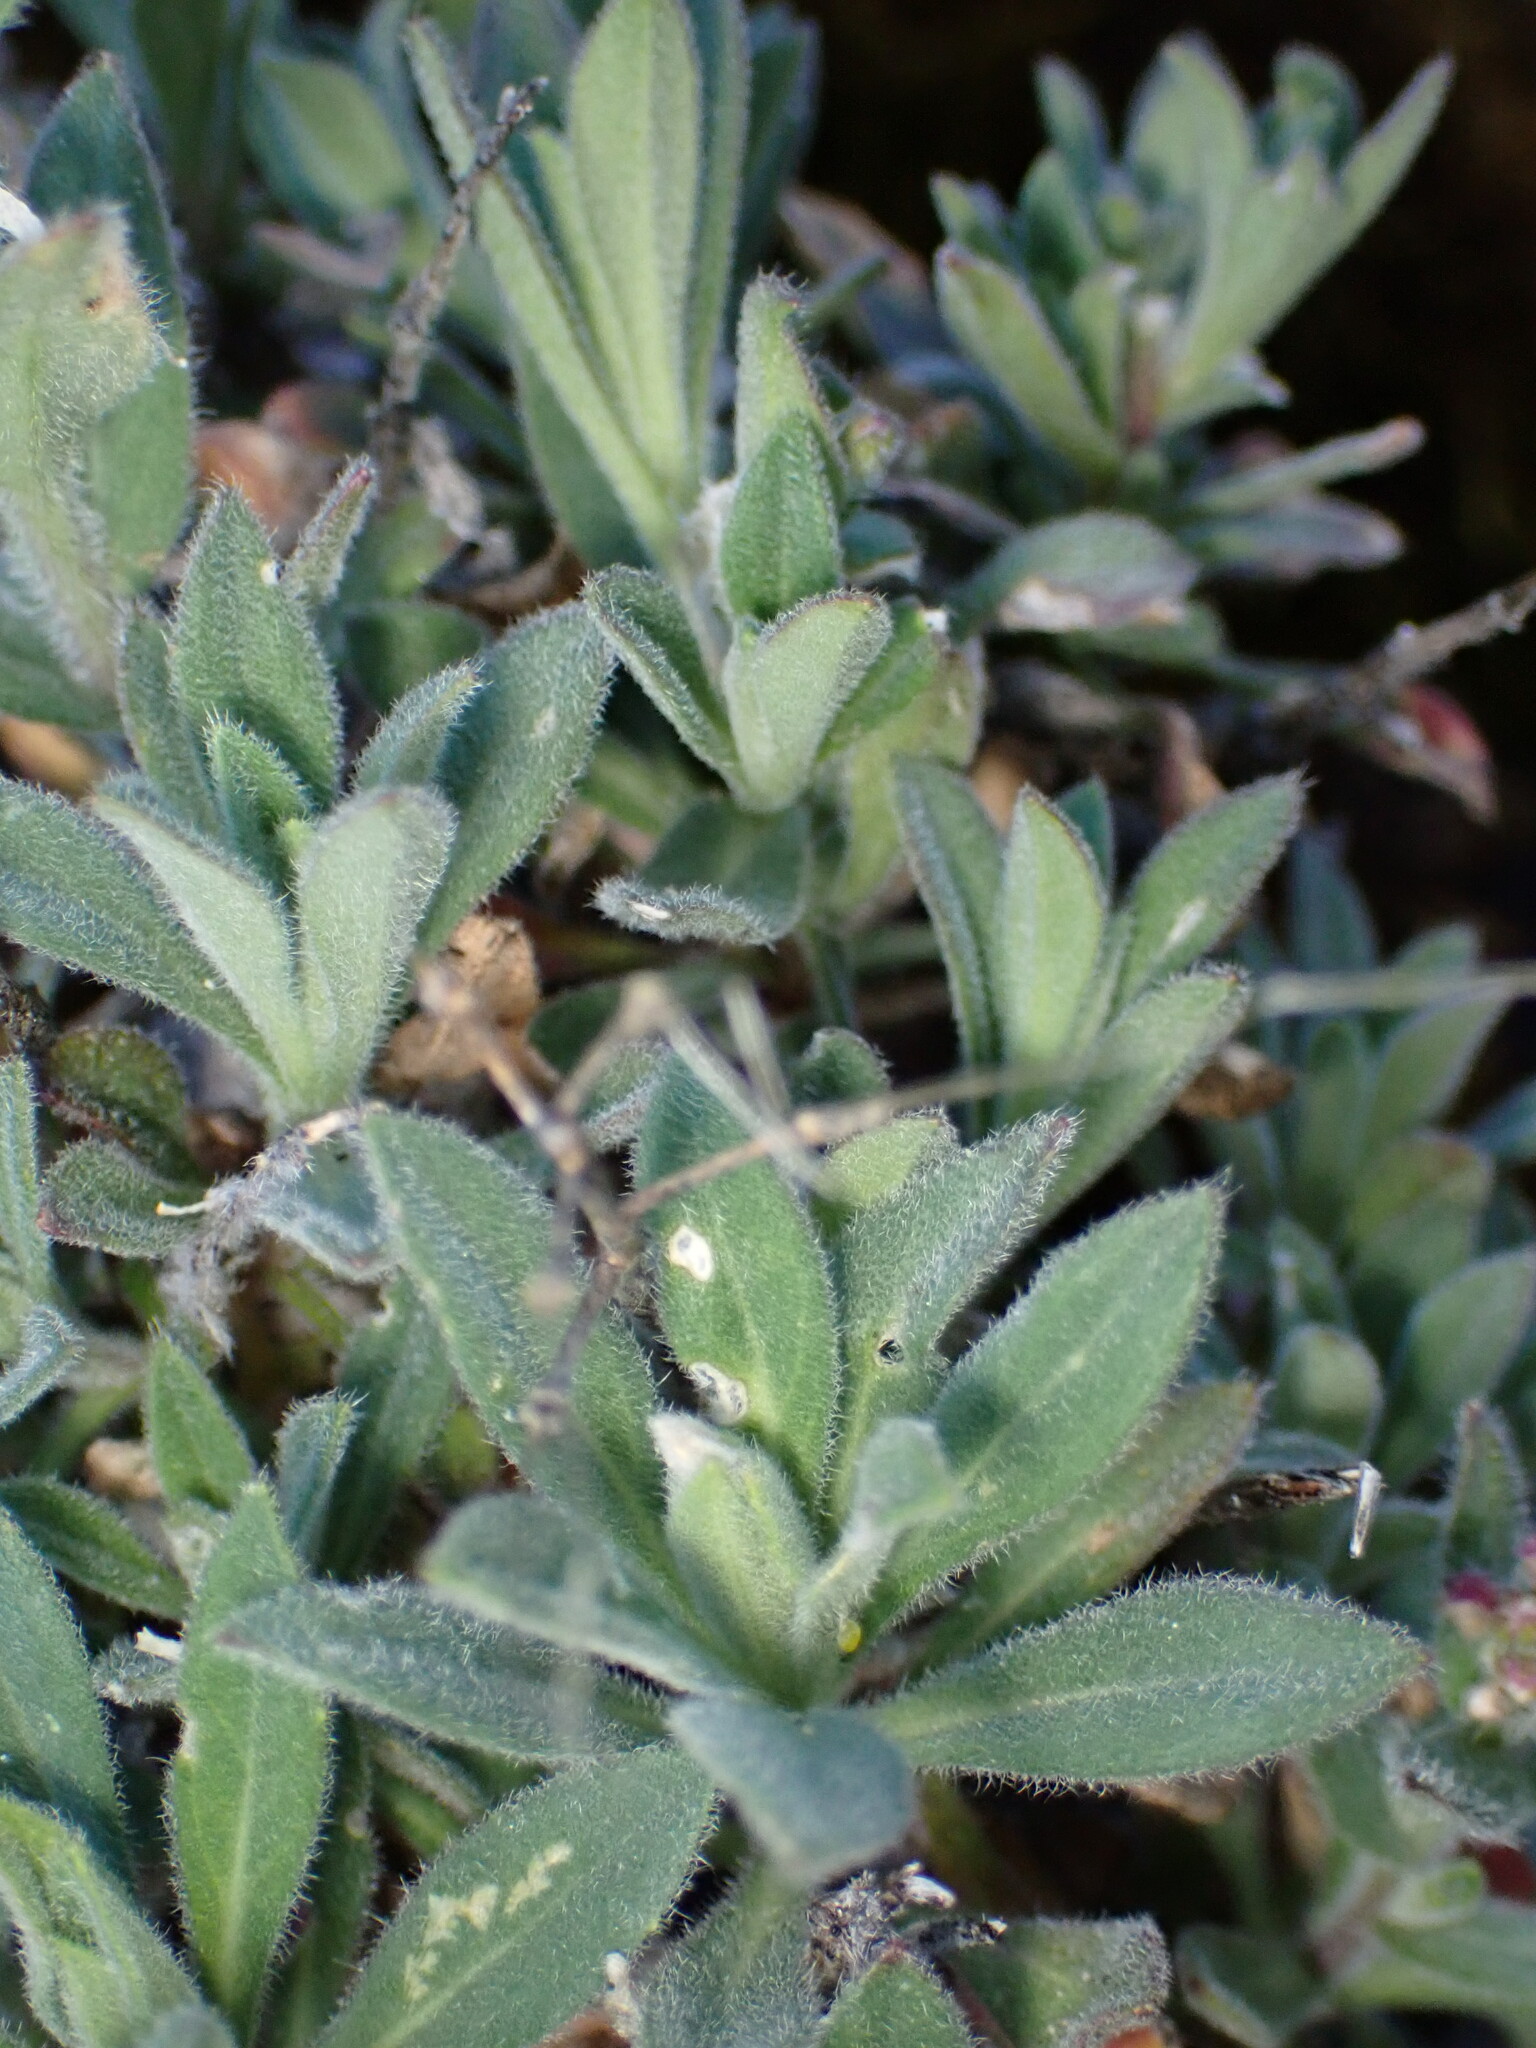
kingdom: Plantae
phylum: Tracheophyta
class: Magnoliopsida
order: Brassicales
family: Brassicaceae
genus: Boechera
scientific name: Boechera breweri
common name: Brewer's rockcress
